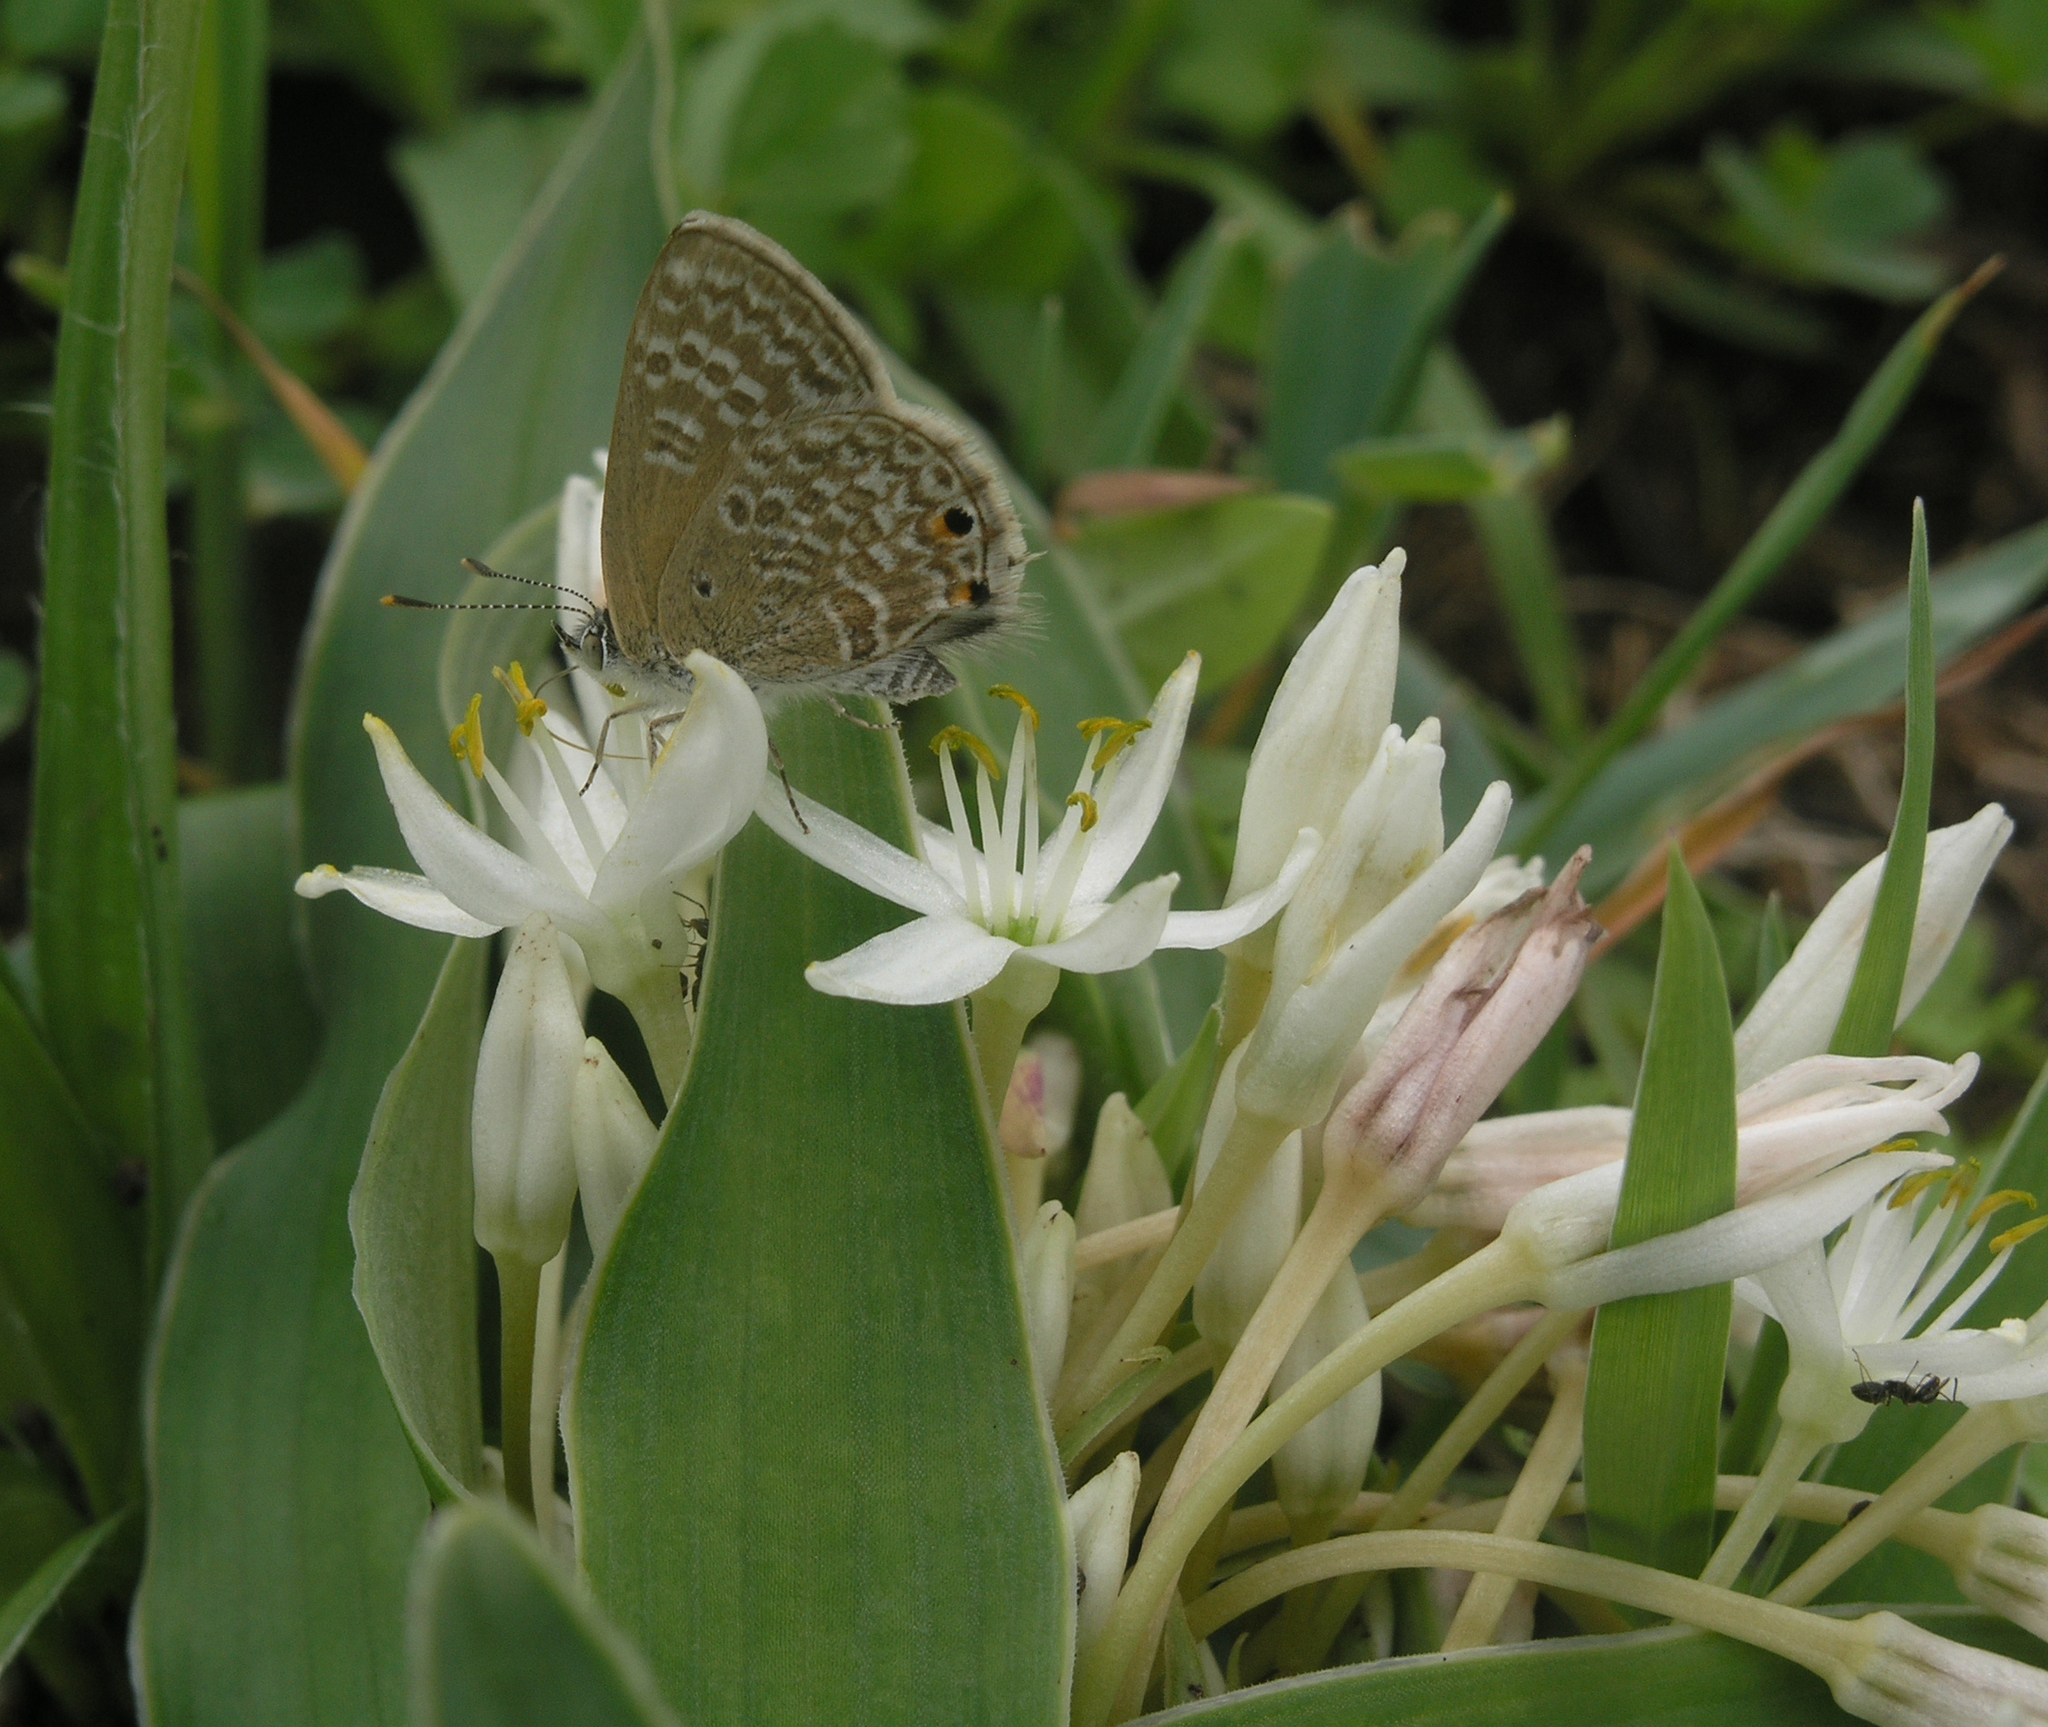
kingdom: Plantae
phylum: Tracheophyta
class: Liliopsida
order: Asparagales
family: Asparagaceae
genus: Chlorophytum
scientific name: Chlorophytum tetraphyllum
